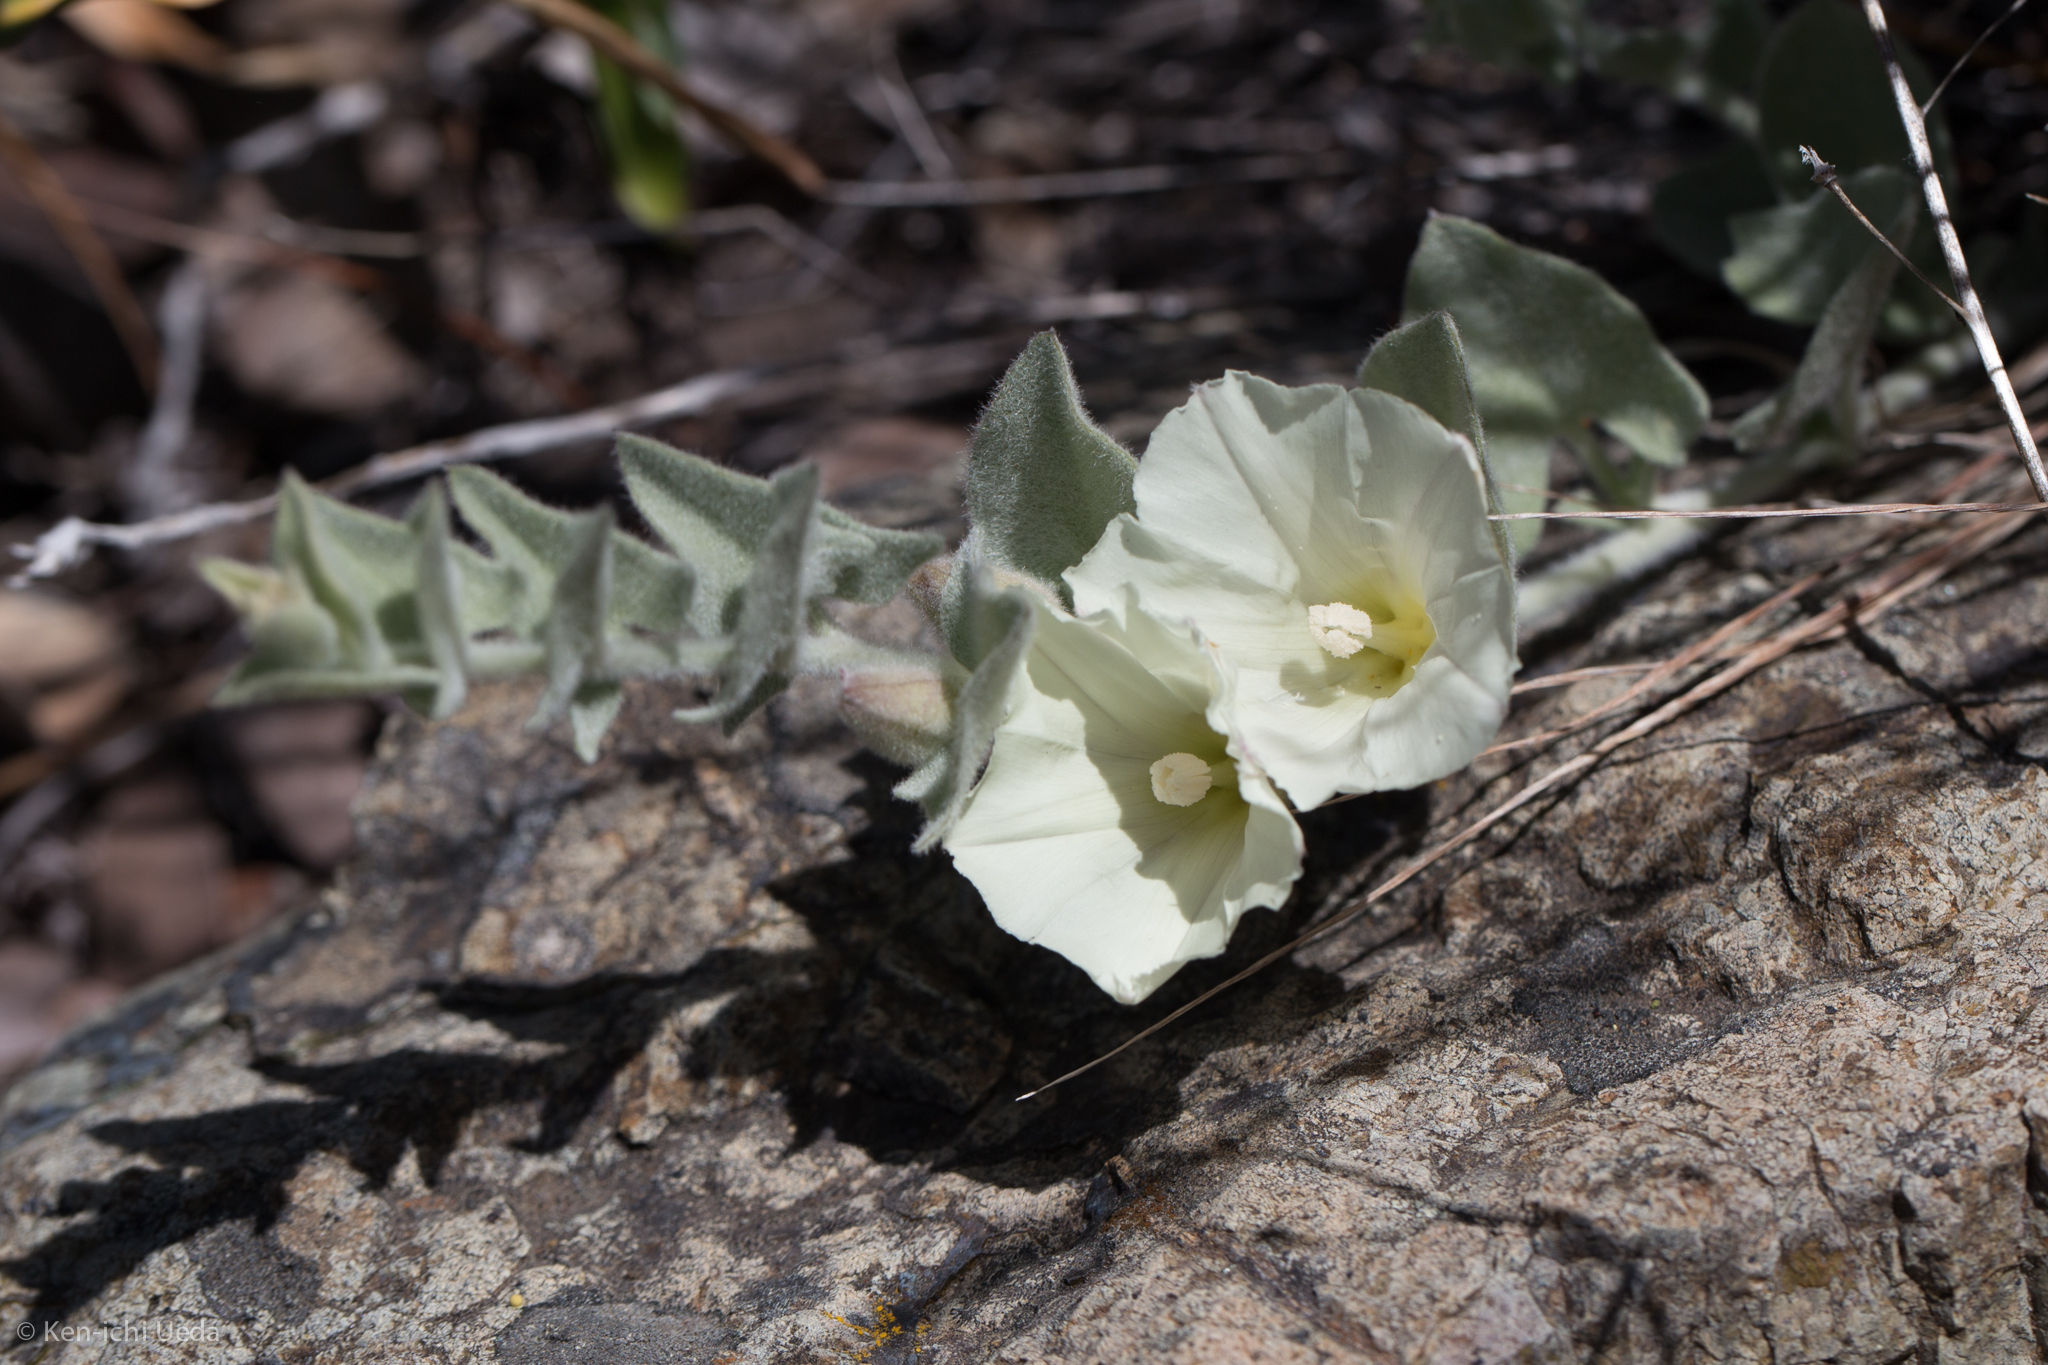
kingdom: Plantae
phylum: Tracheophyta
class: Magnoliopsida
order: Solanales
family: Convolvulaceae
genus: Calystegia
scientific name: Calystegia malacophylla
